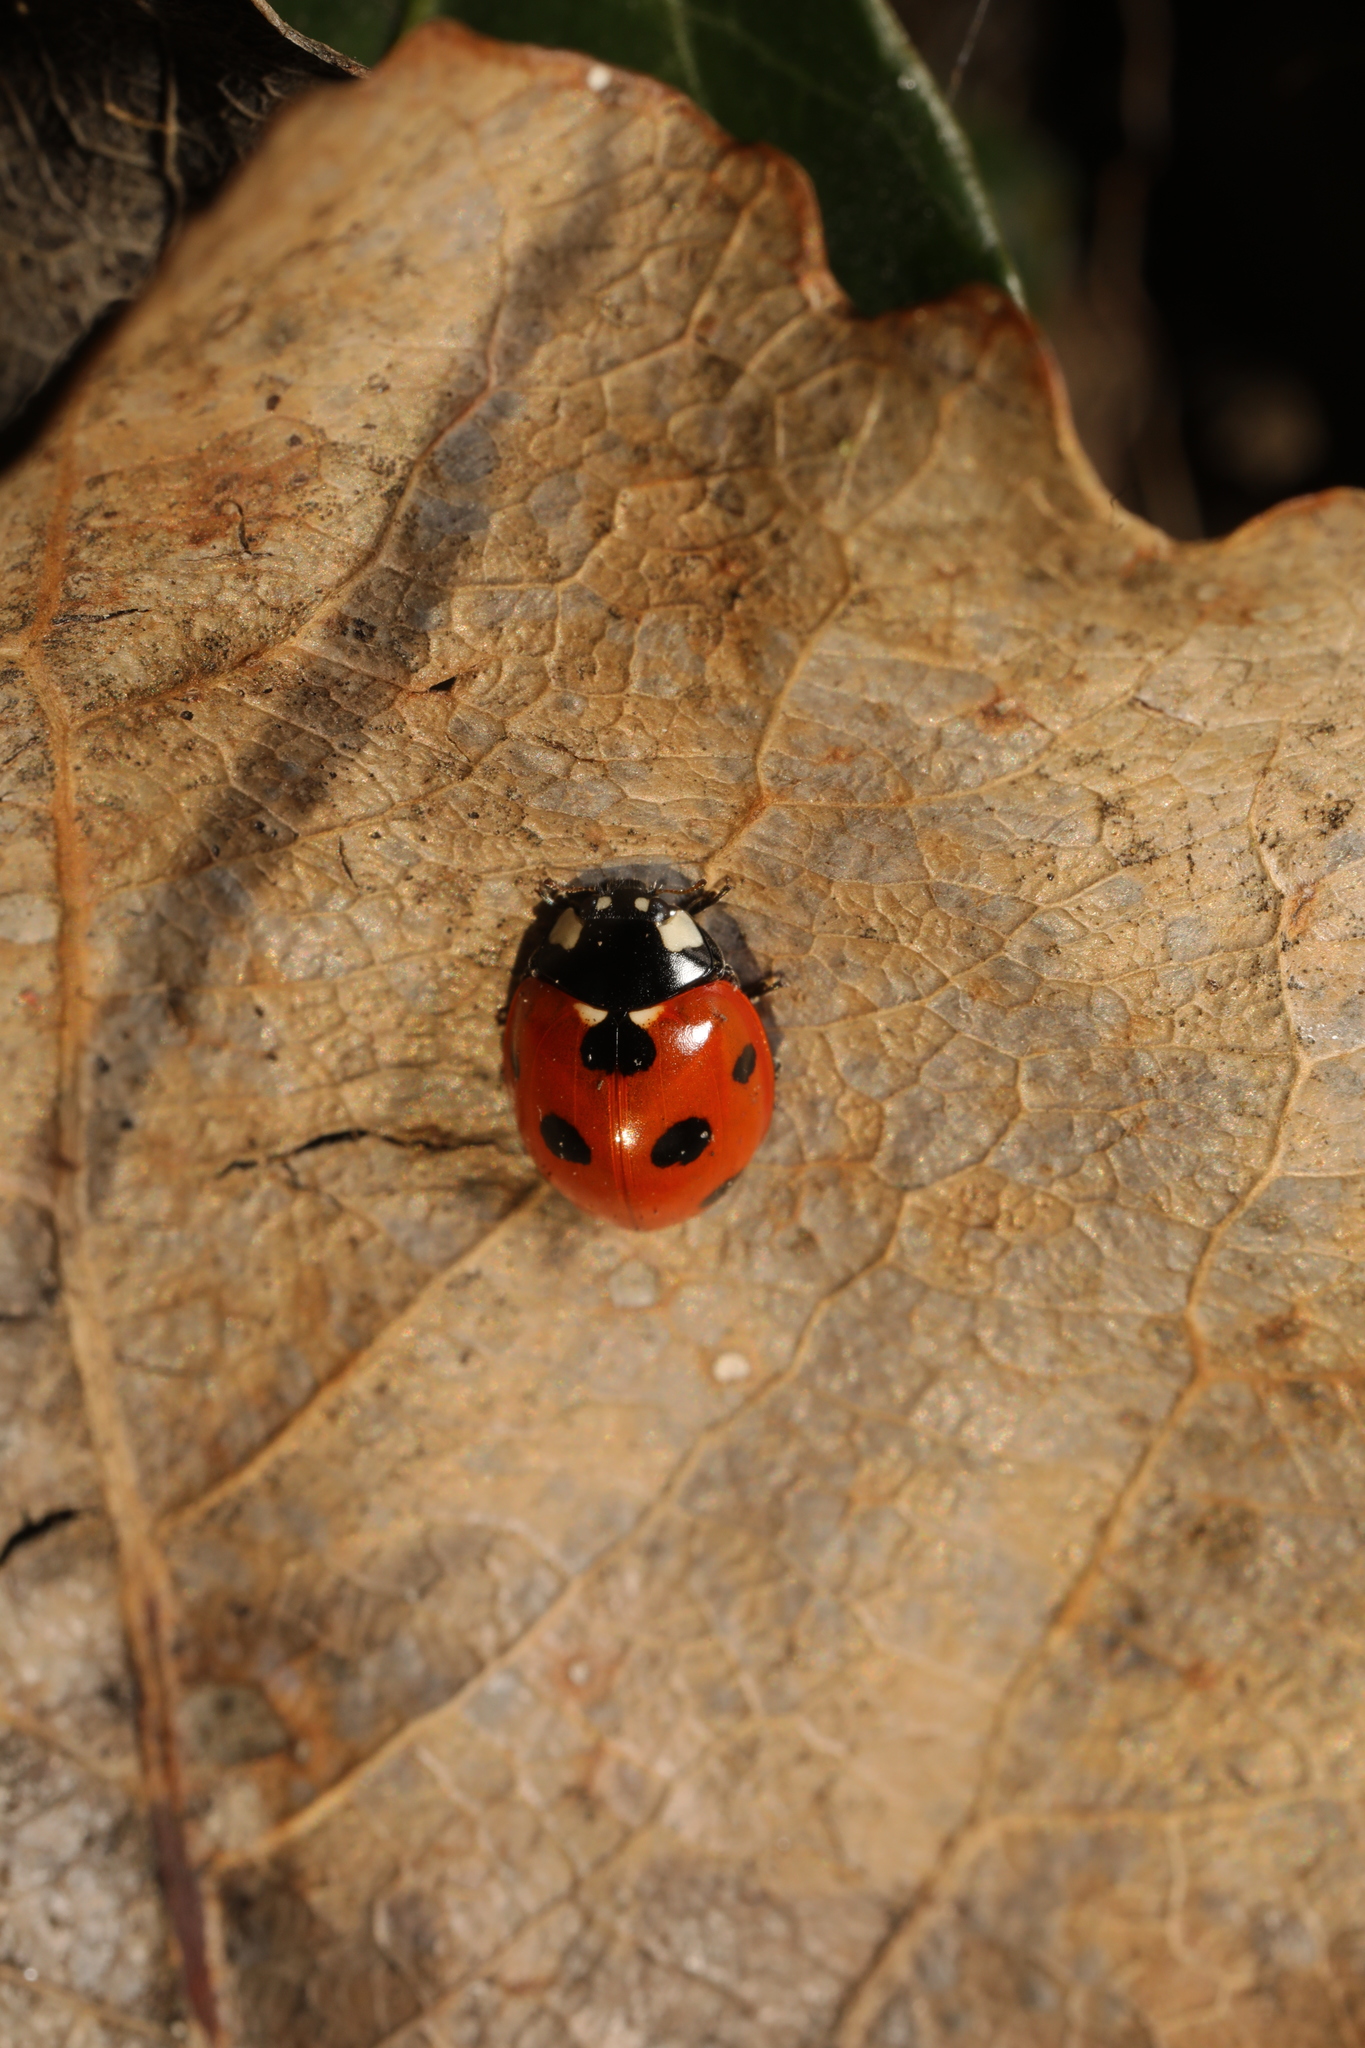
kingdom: Animalia
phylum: Arthropoda
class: Insecta
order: Coleoptera
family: Coccinellidae
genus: Coccinella
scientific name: Coccinella septempunctata
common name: Sevenspotted lady beetle
